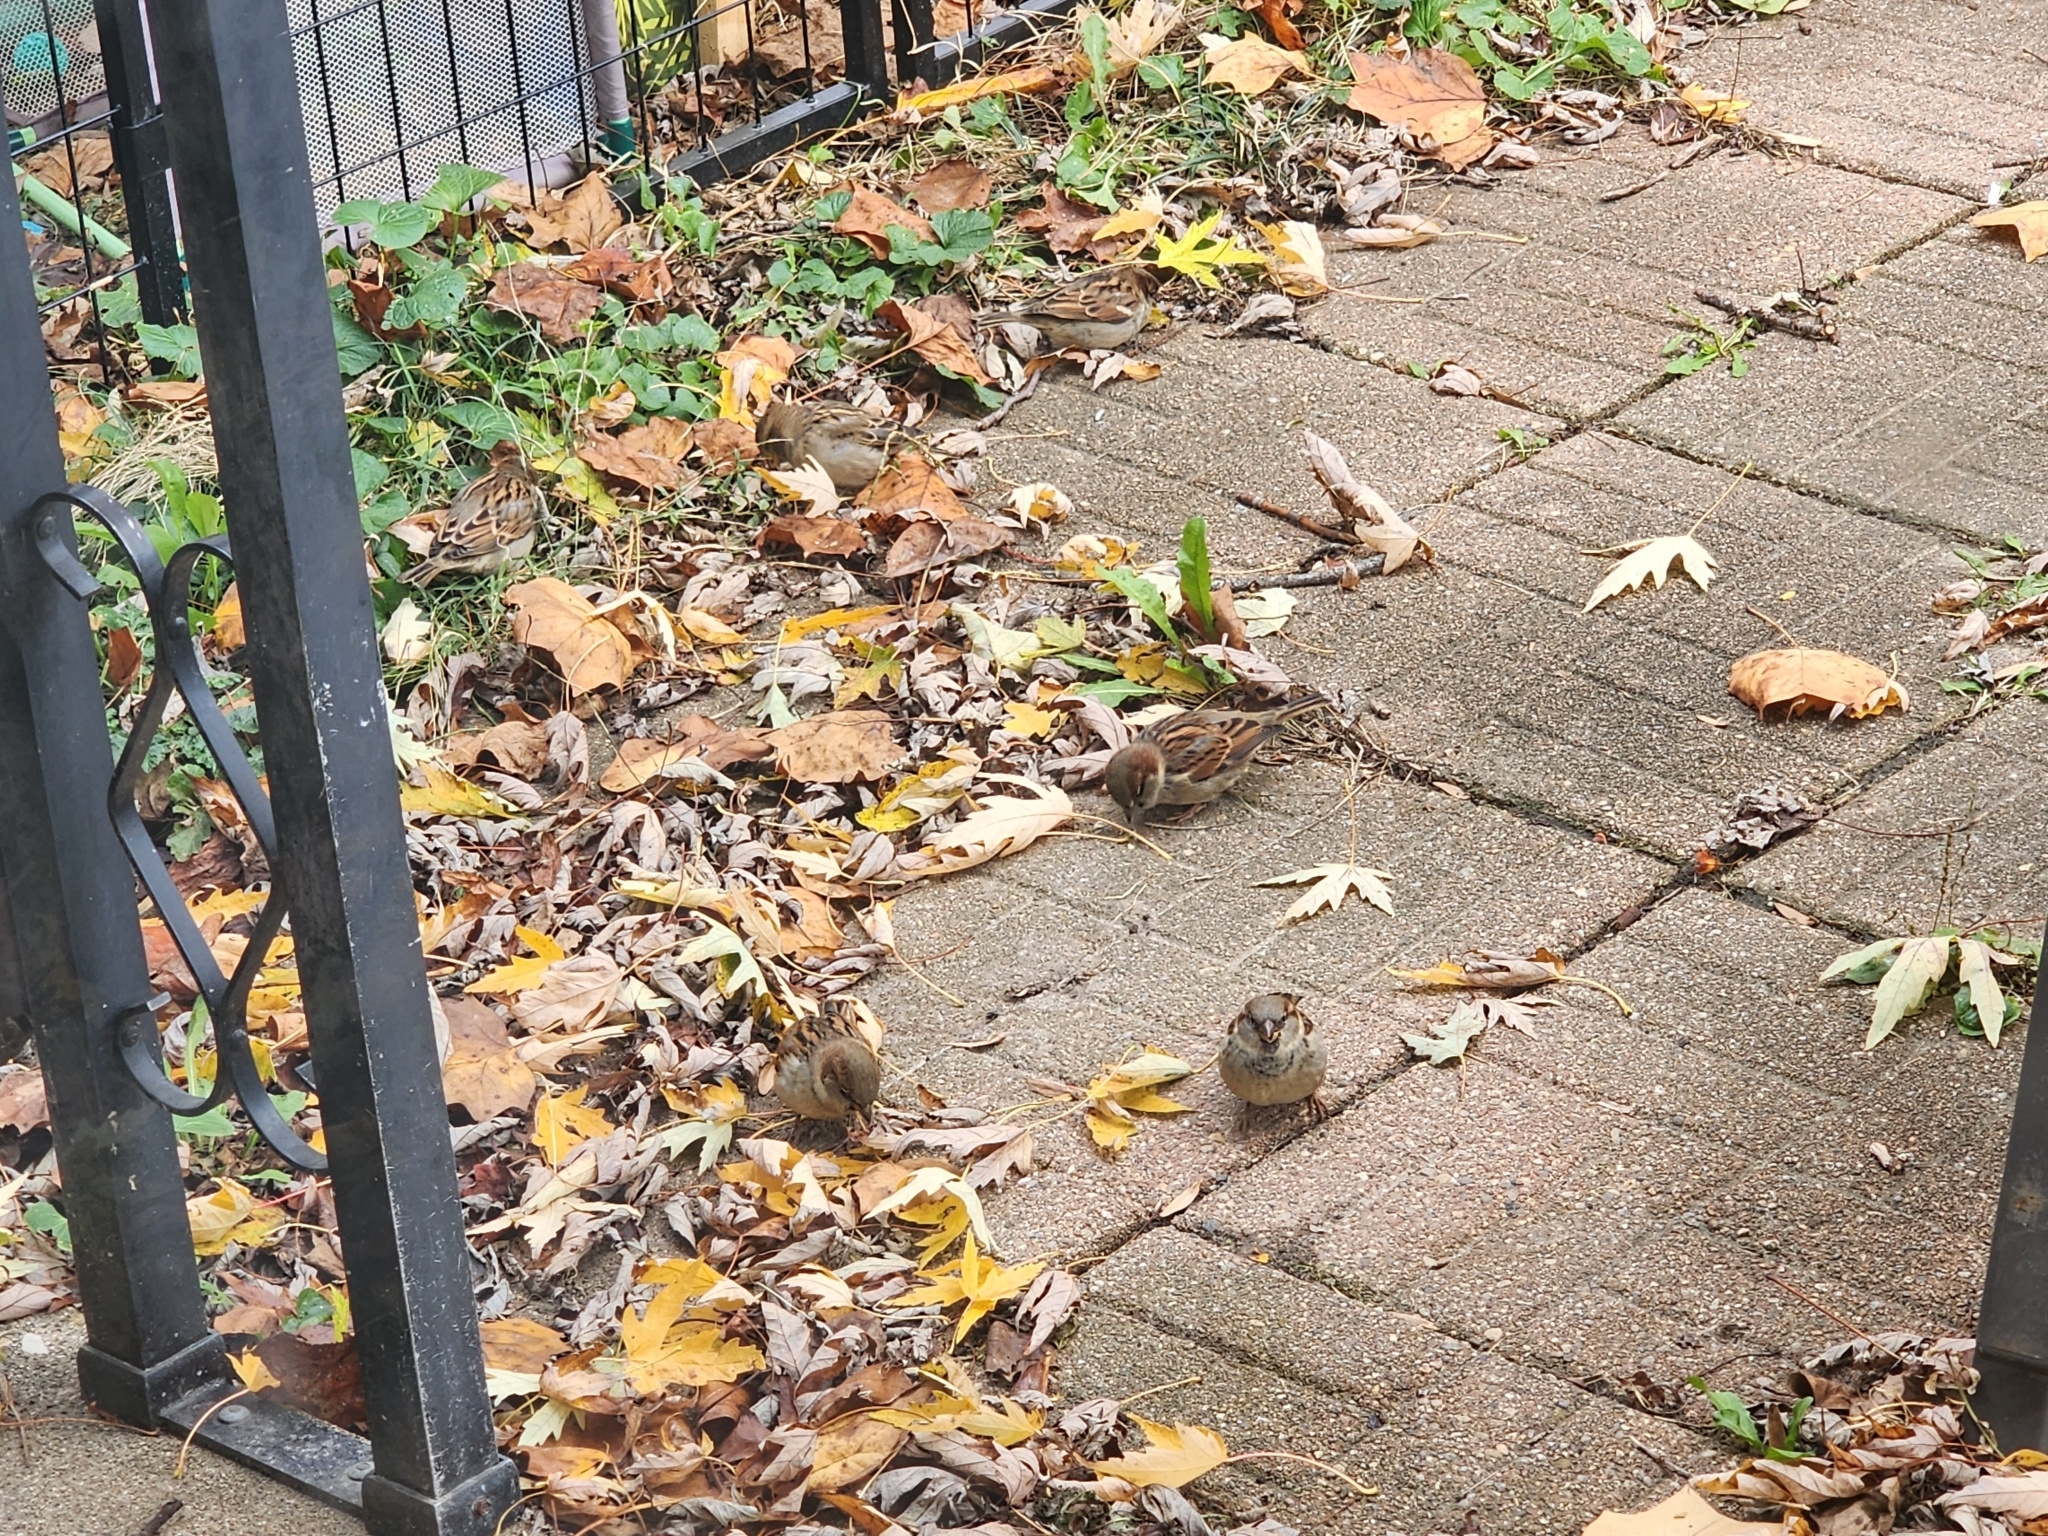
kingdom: Animalia
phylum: Chordata
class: Aves
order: Passeriformes
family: Passeridae
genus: Passer
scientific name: Passer domesticus
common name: House sparrow
